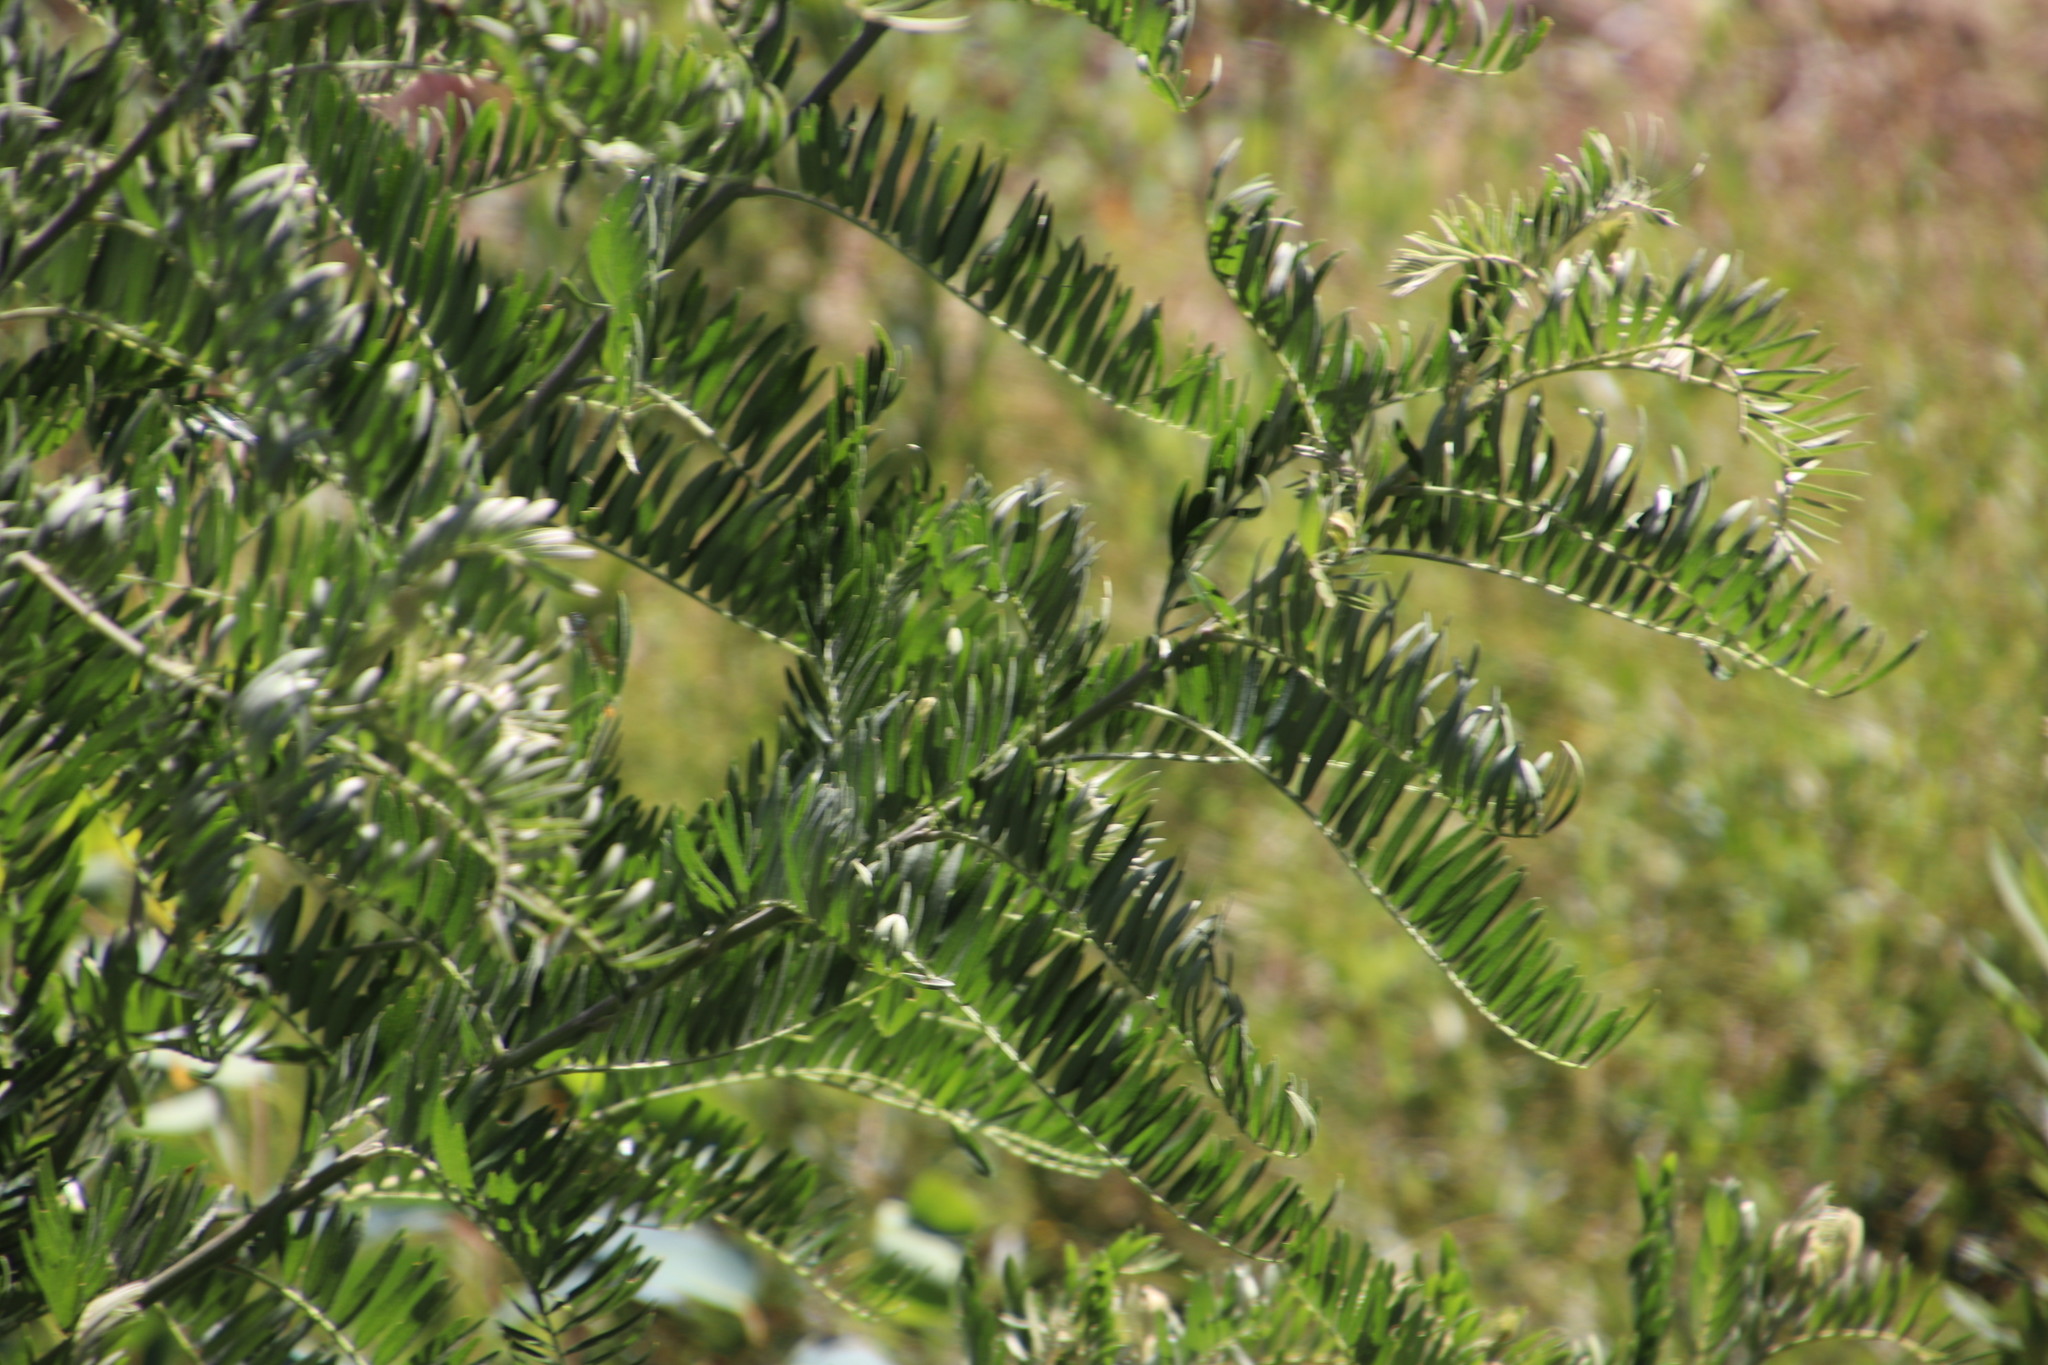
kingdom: Plantae
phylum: Tracheophyta
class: Magnoliopsida
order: Fabales
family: Fabaceae
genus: Virgilia
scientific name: Virgilia oroboides
